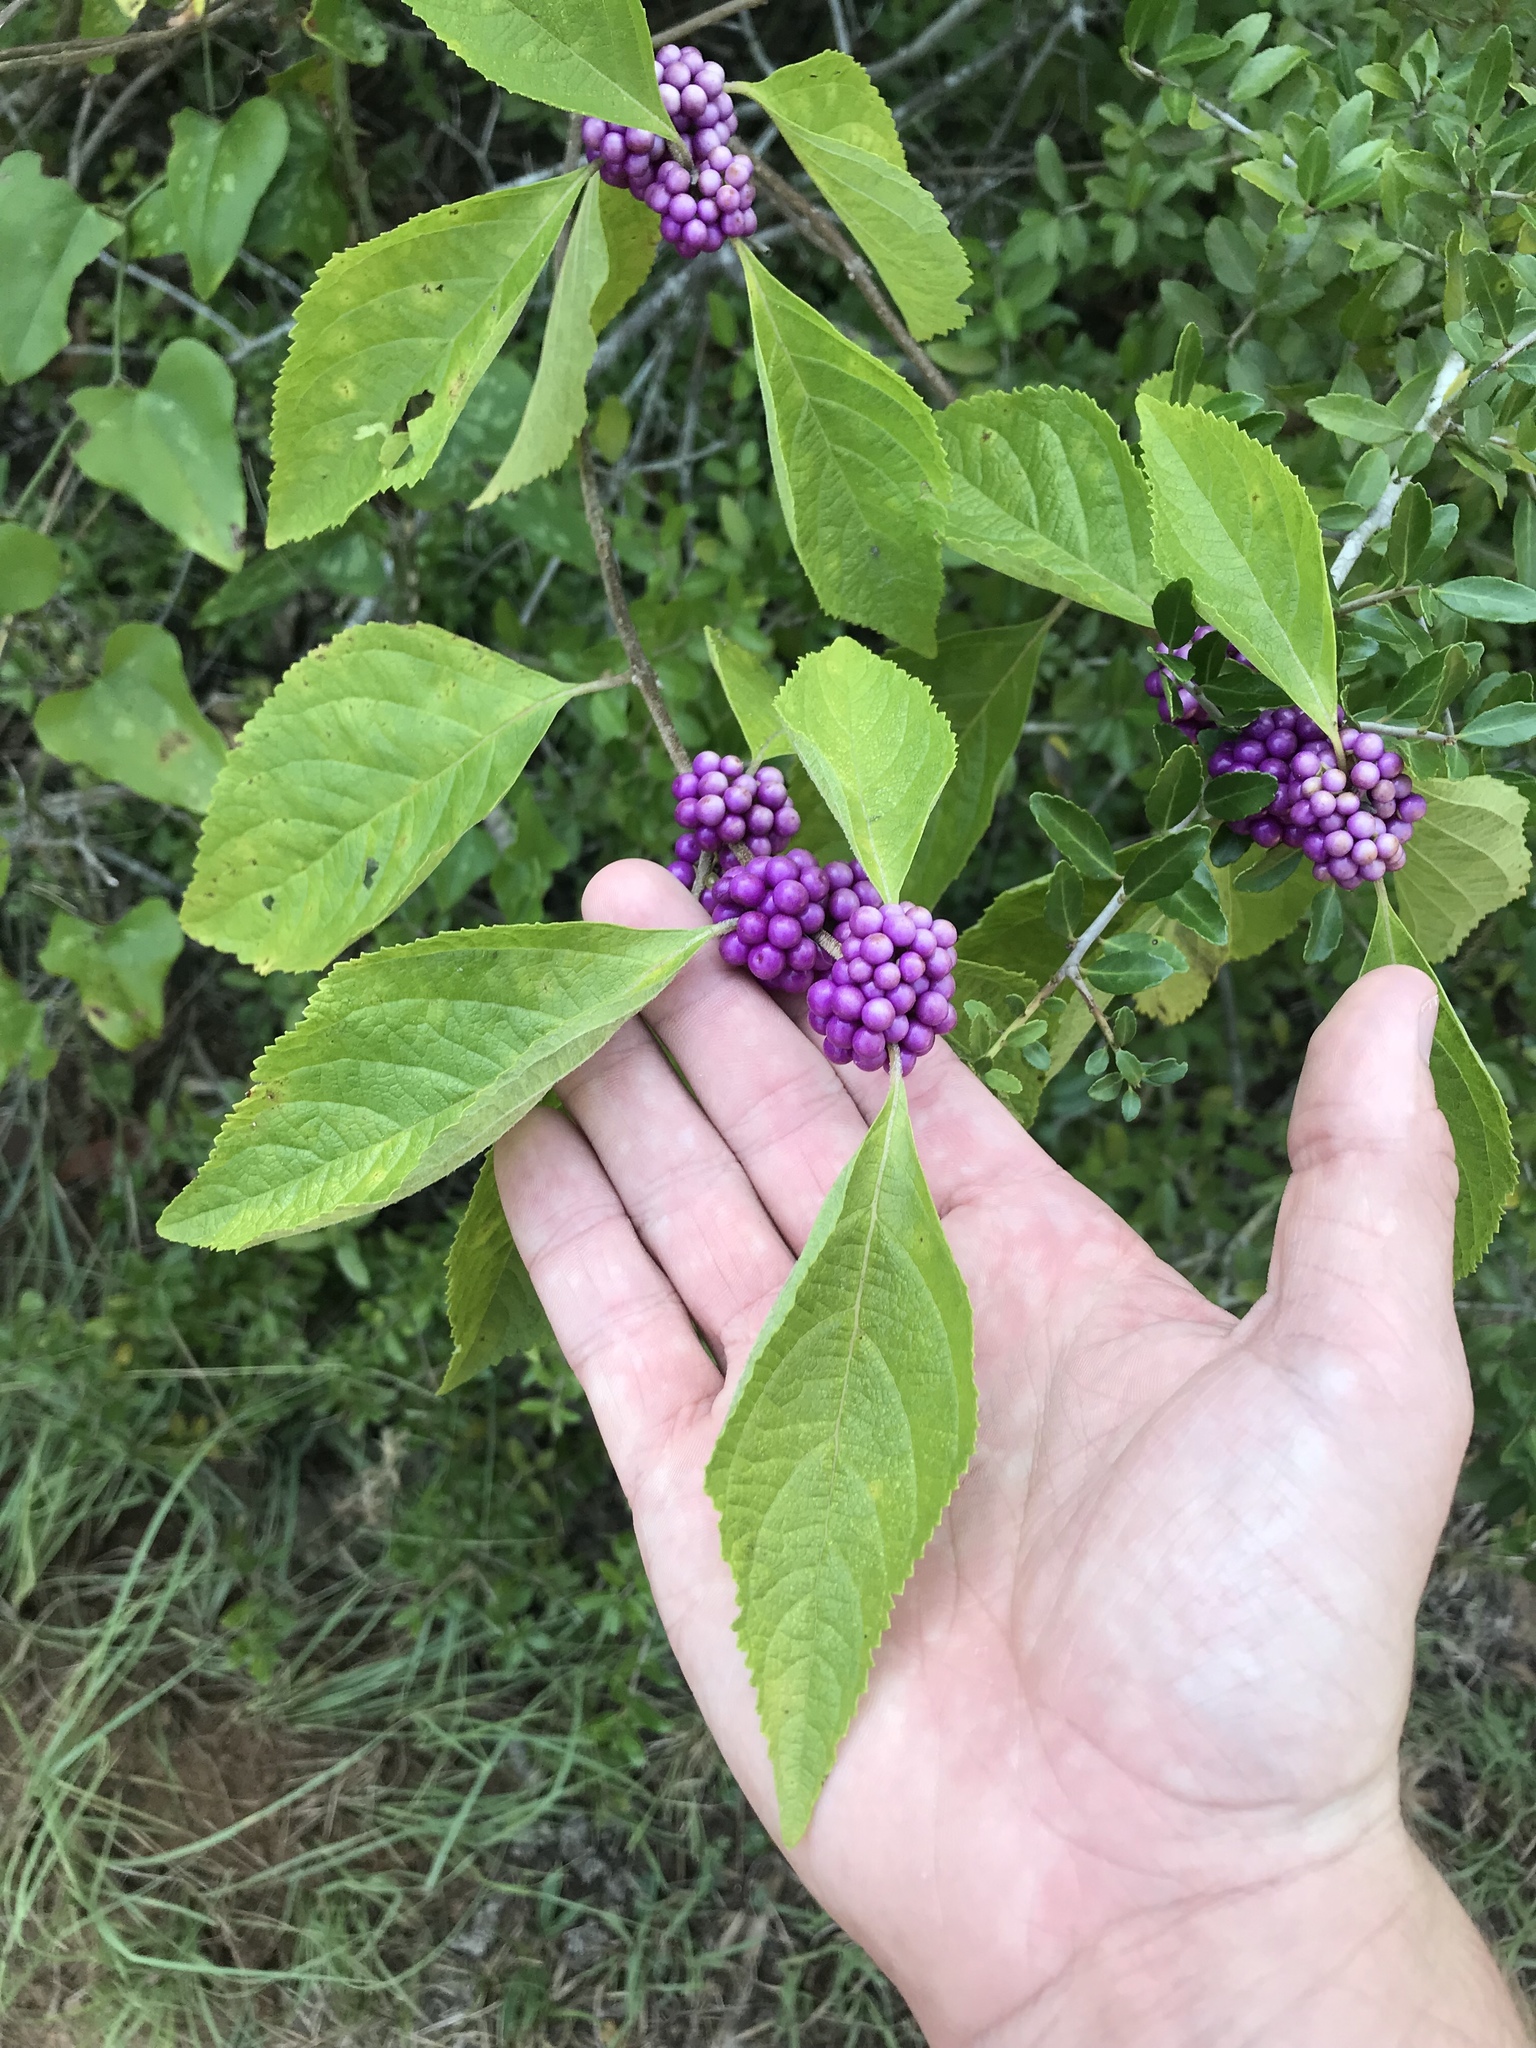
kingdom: Plantae
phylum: Tracheophyta
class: Magnoliopsida
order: Lamiales
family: Lamiaceae
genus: Callicarpa
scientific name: Callicarpa americana
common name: American beautyberry
